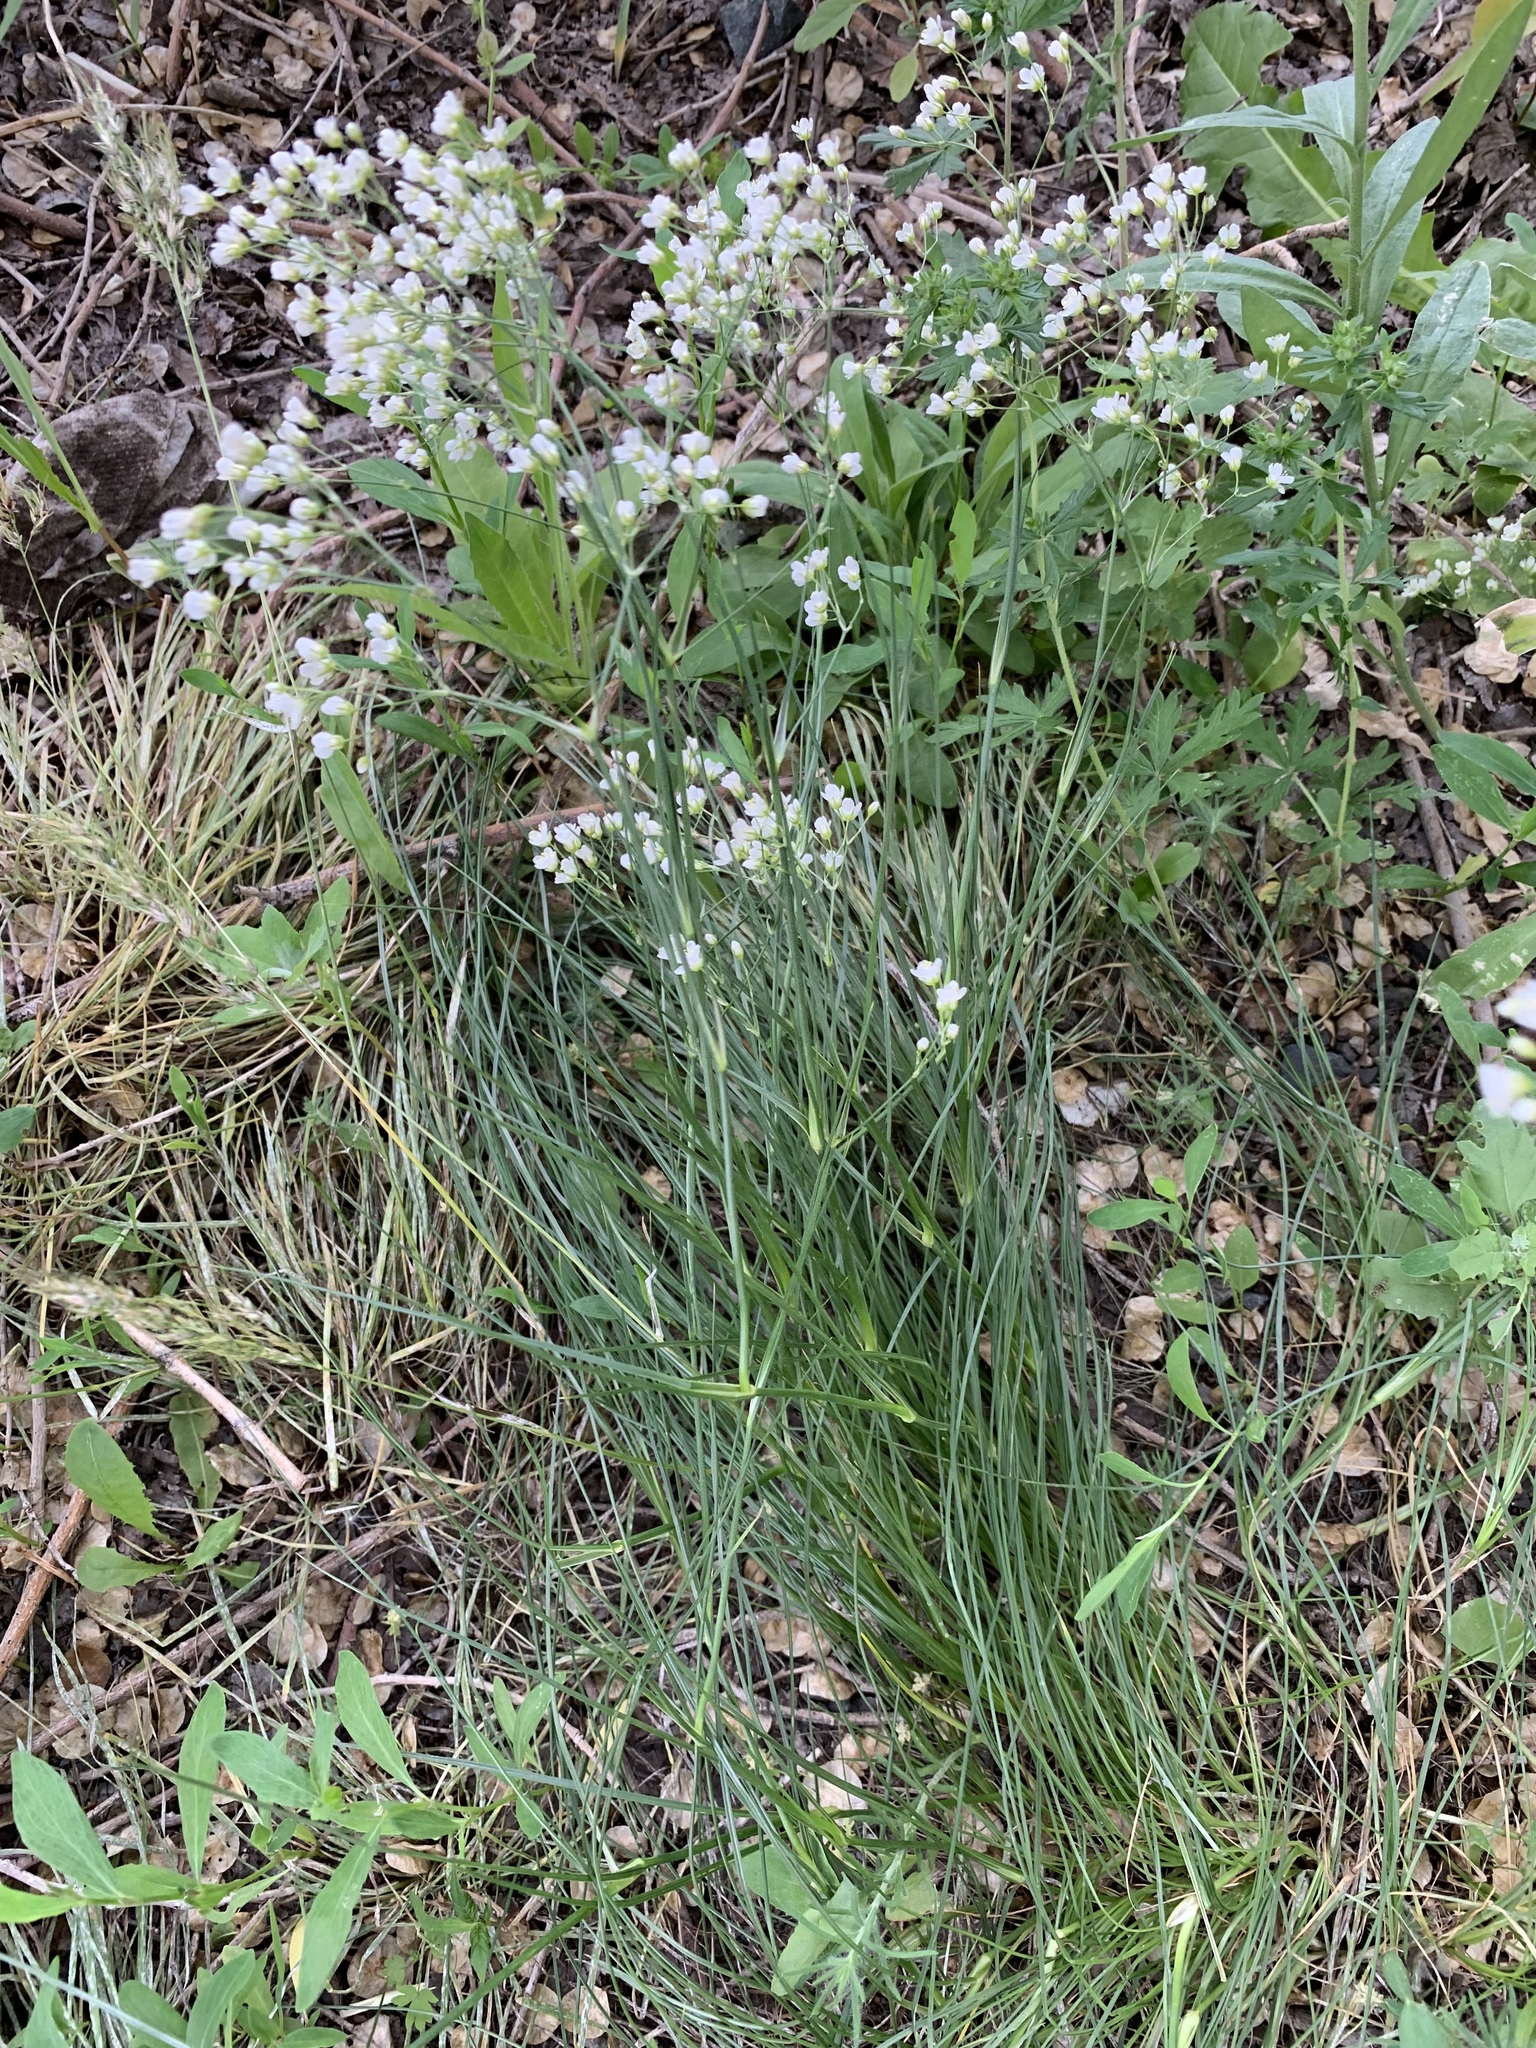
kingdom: Plantae
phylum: Tracheophyta
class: Magnoliopsida
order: Caryophyllales
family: Caryophyllaceae
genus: Eremogone
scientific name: Eremogone longifolia
